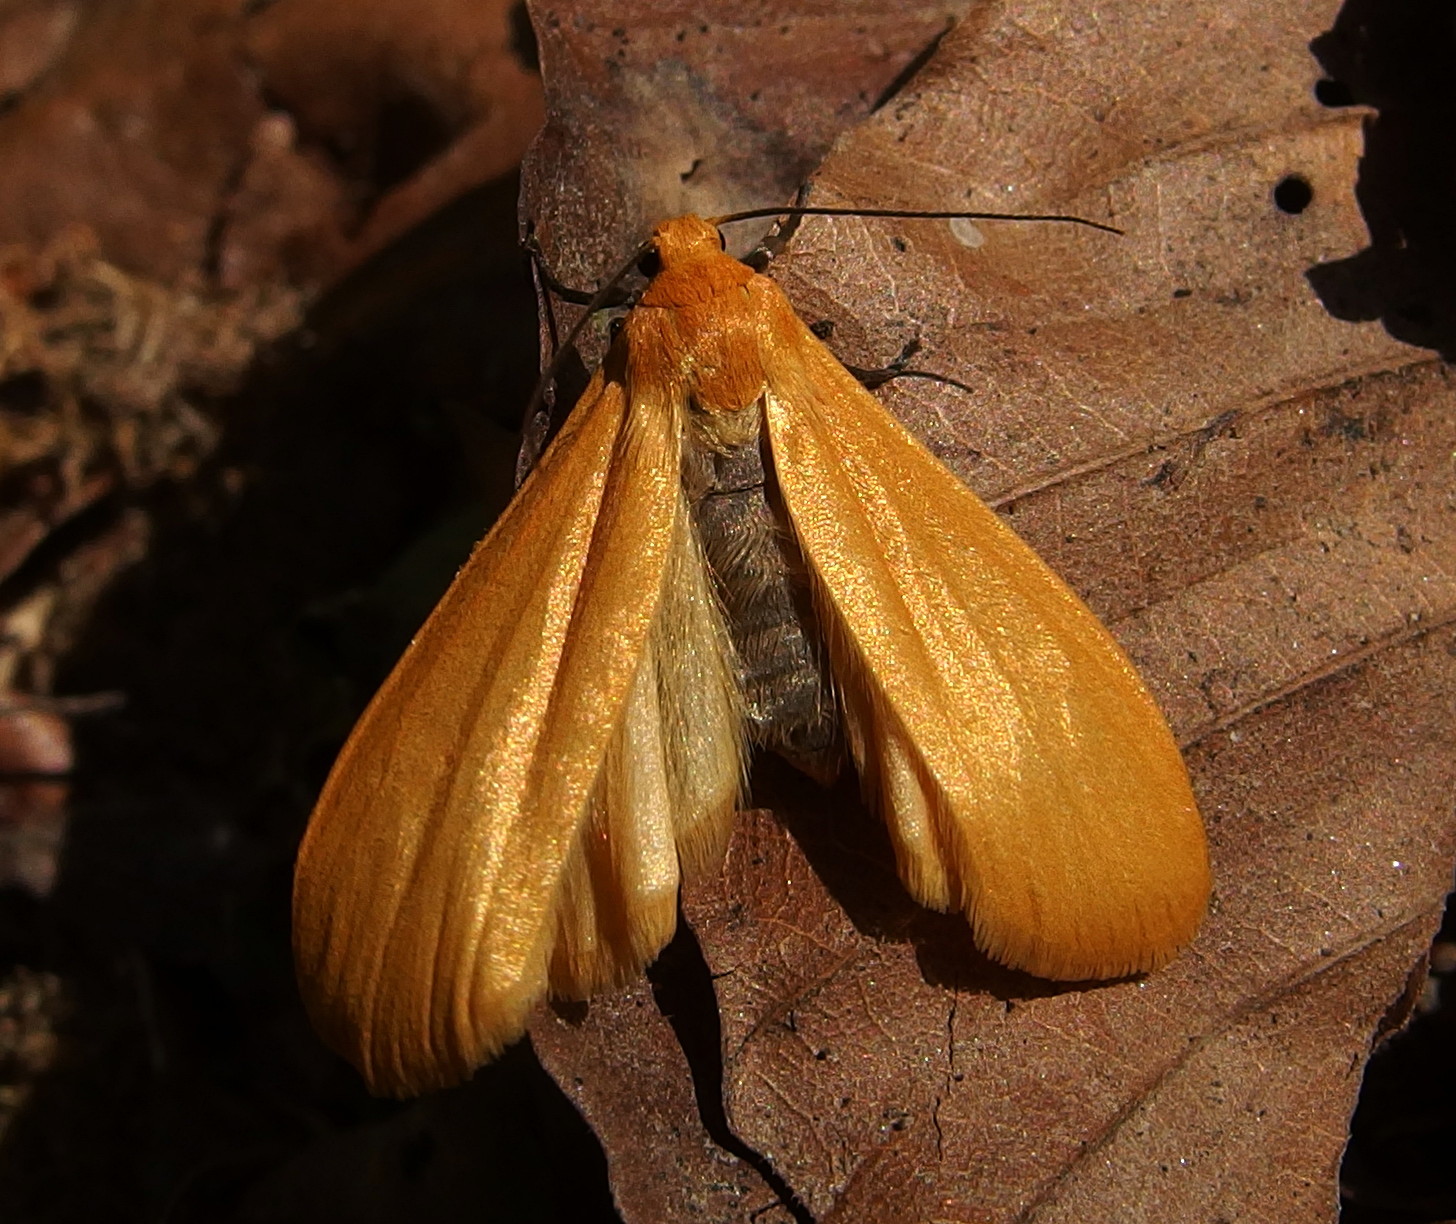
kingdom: Animalia
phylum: Arthropoda
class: Insecta
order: Lepidoptera
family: Erebidae
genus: Wittia
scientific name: Wittia sororcula
